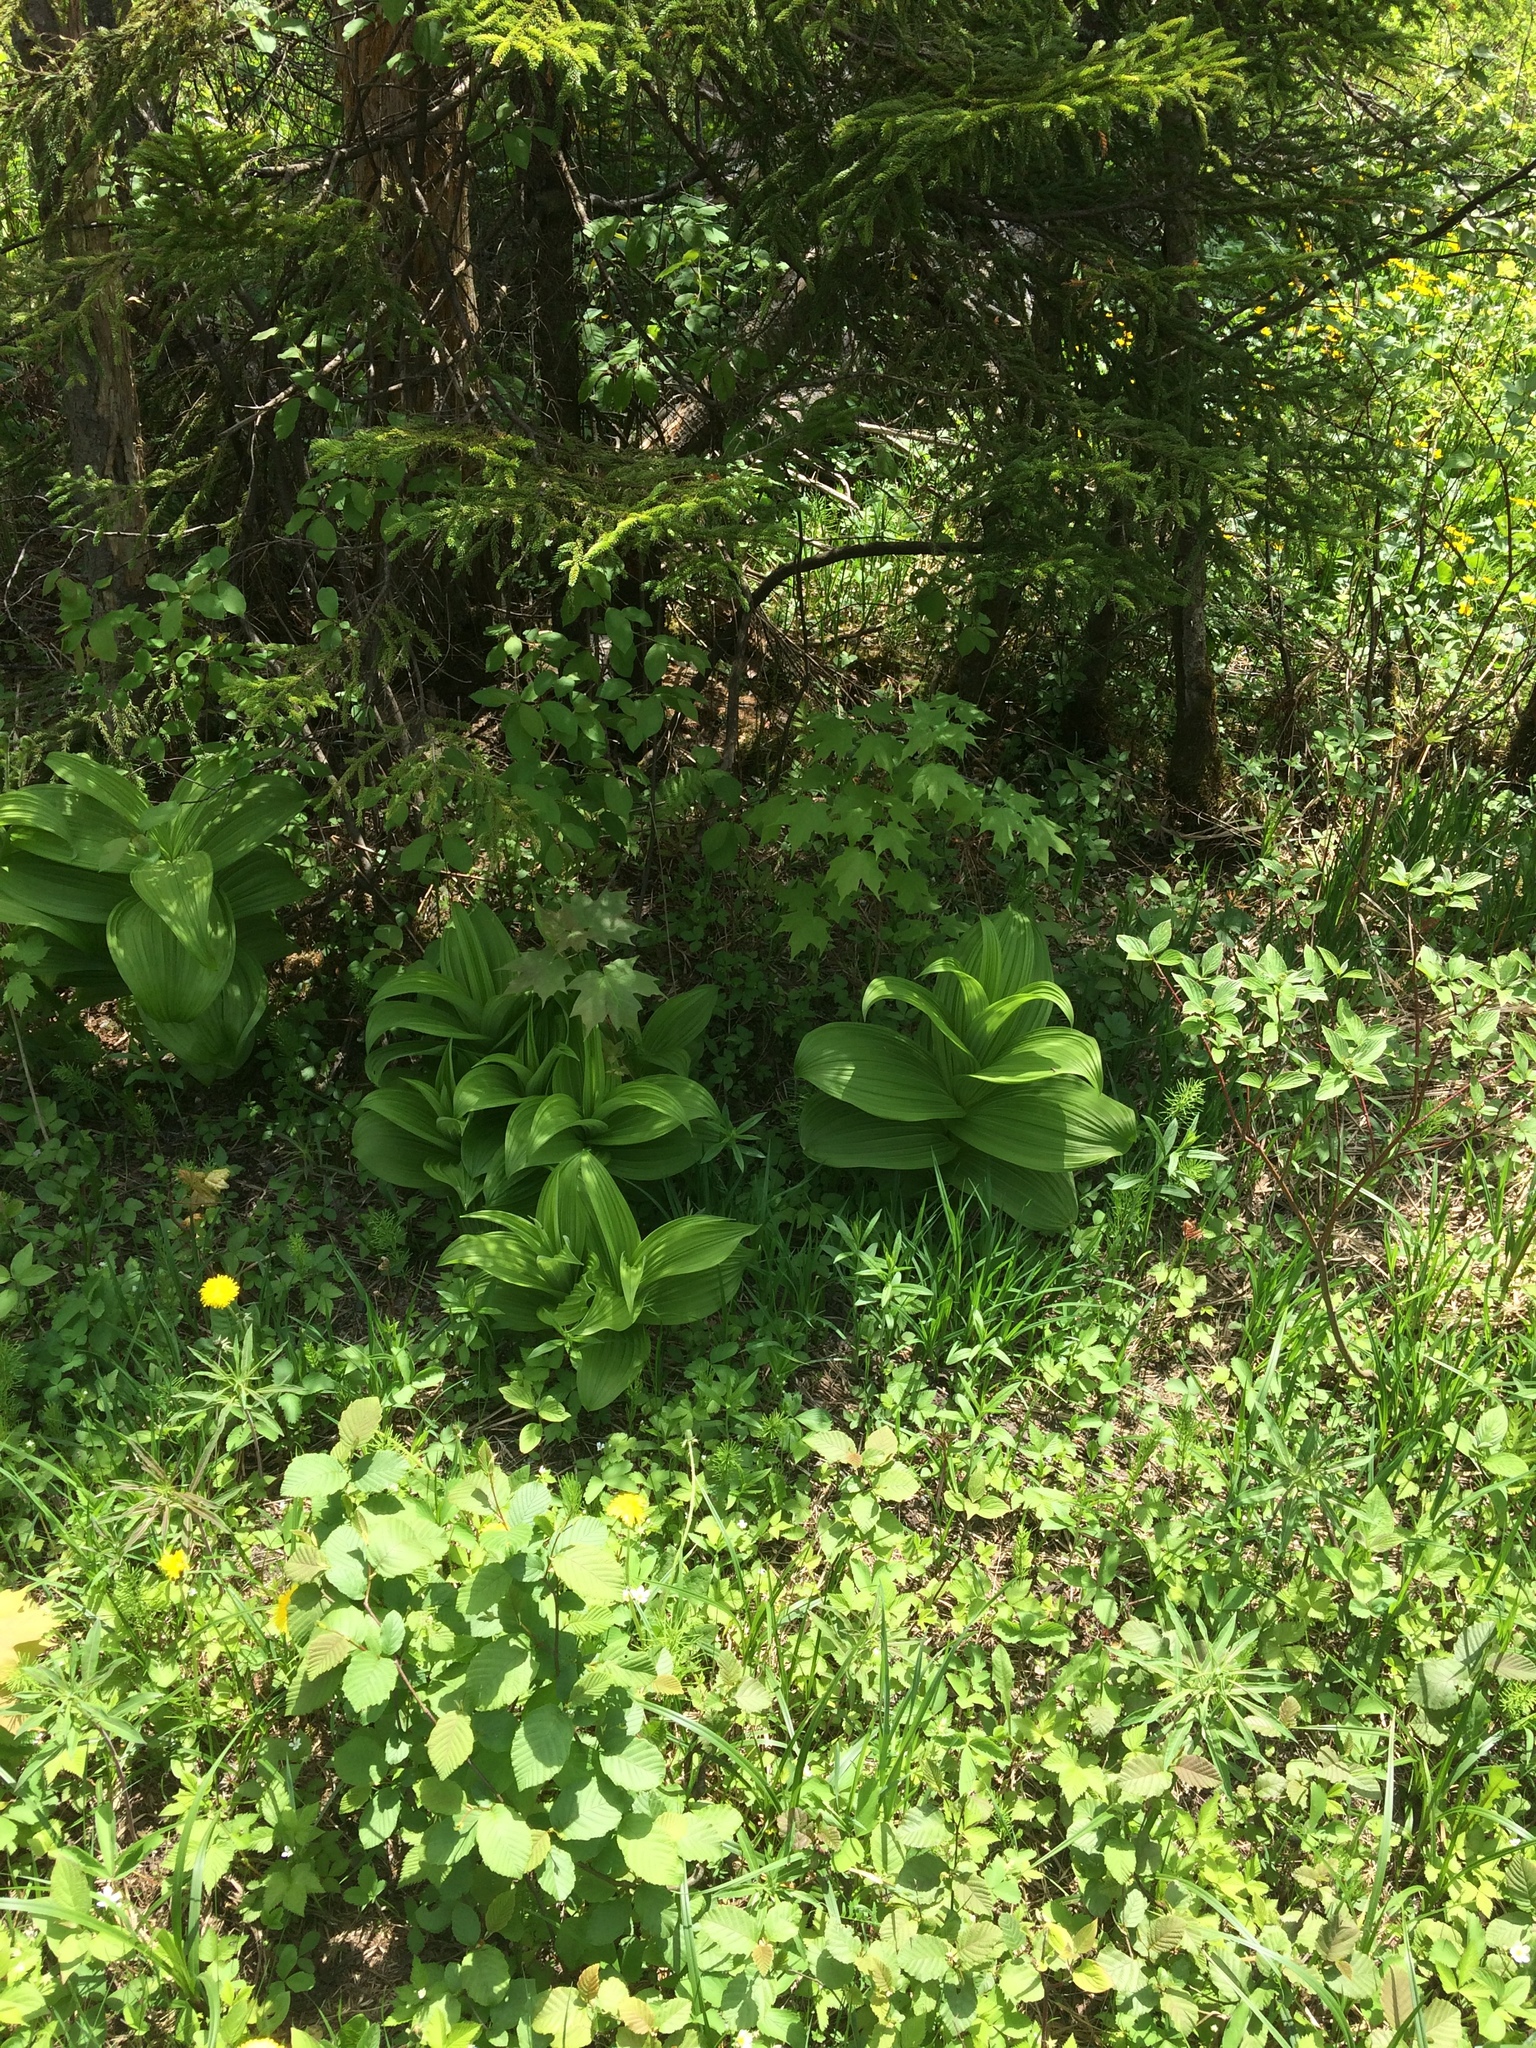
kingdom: Plantae
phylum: Tracheophyta
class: Liliopsida
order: Liliales
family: Melanthiaceae
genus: Veratrum
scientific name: Veratrum viride
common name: American false hellebore
